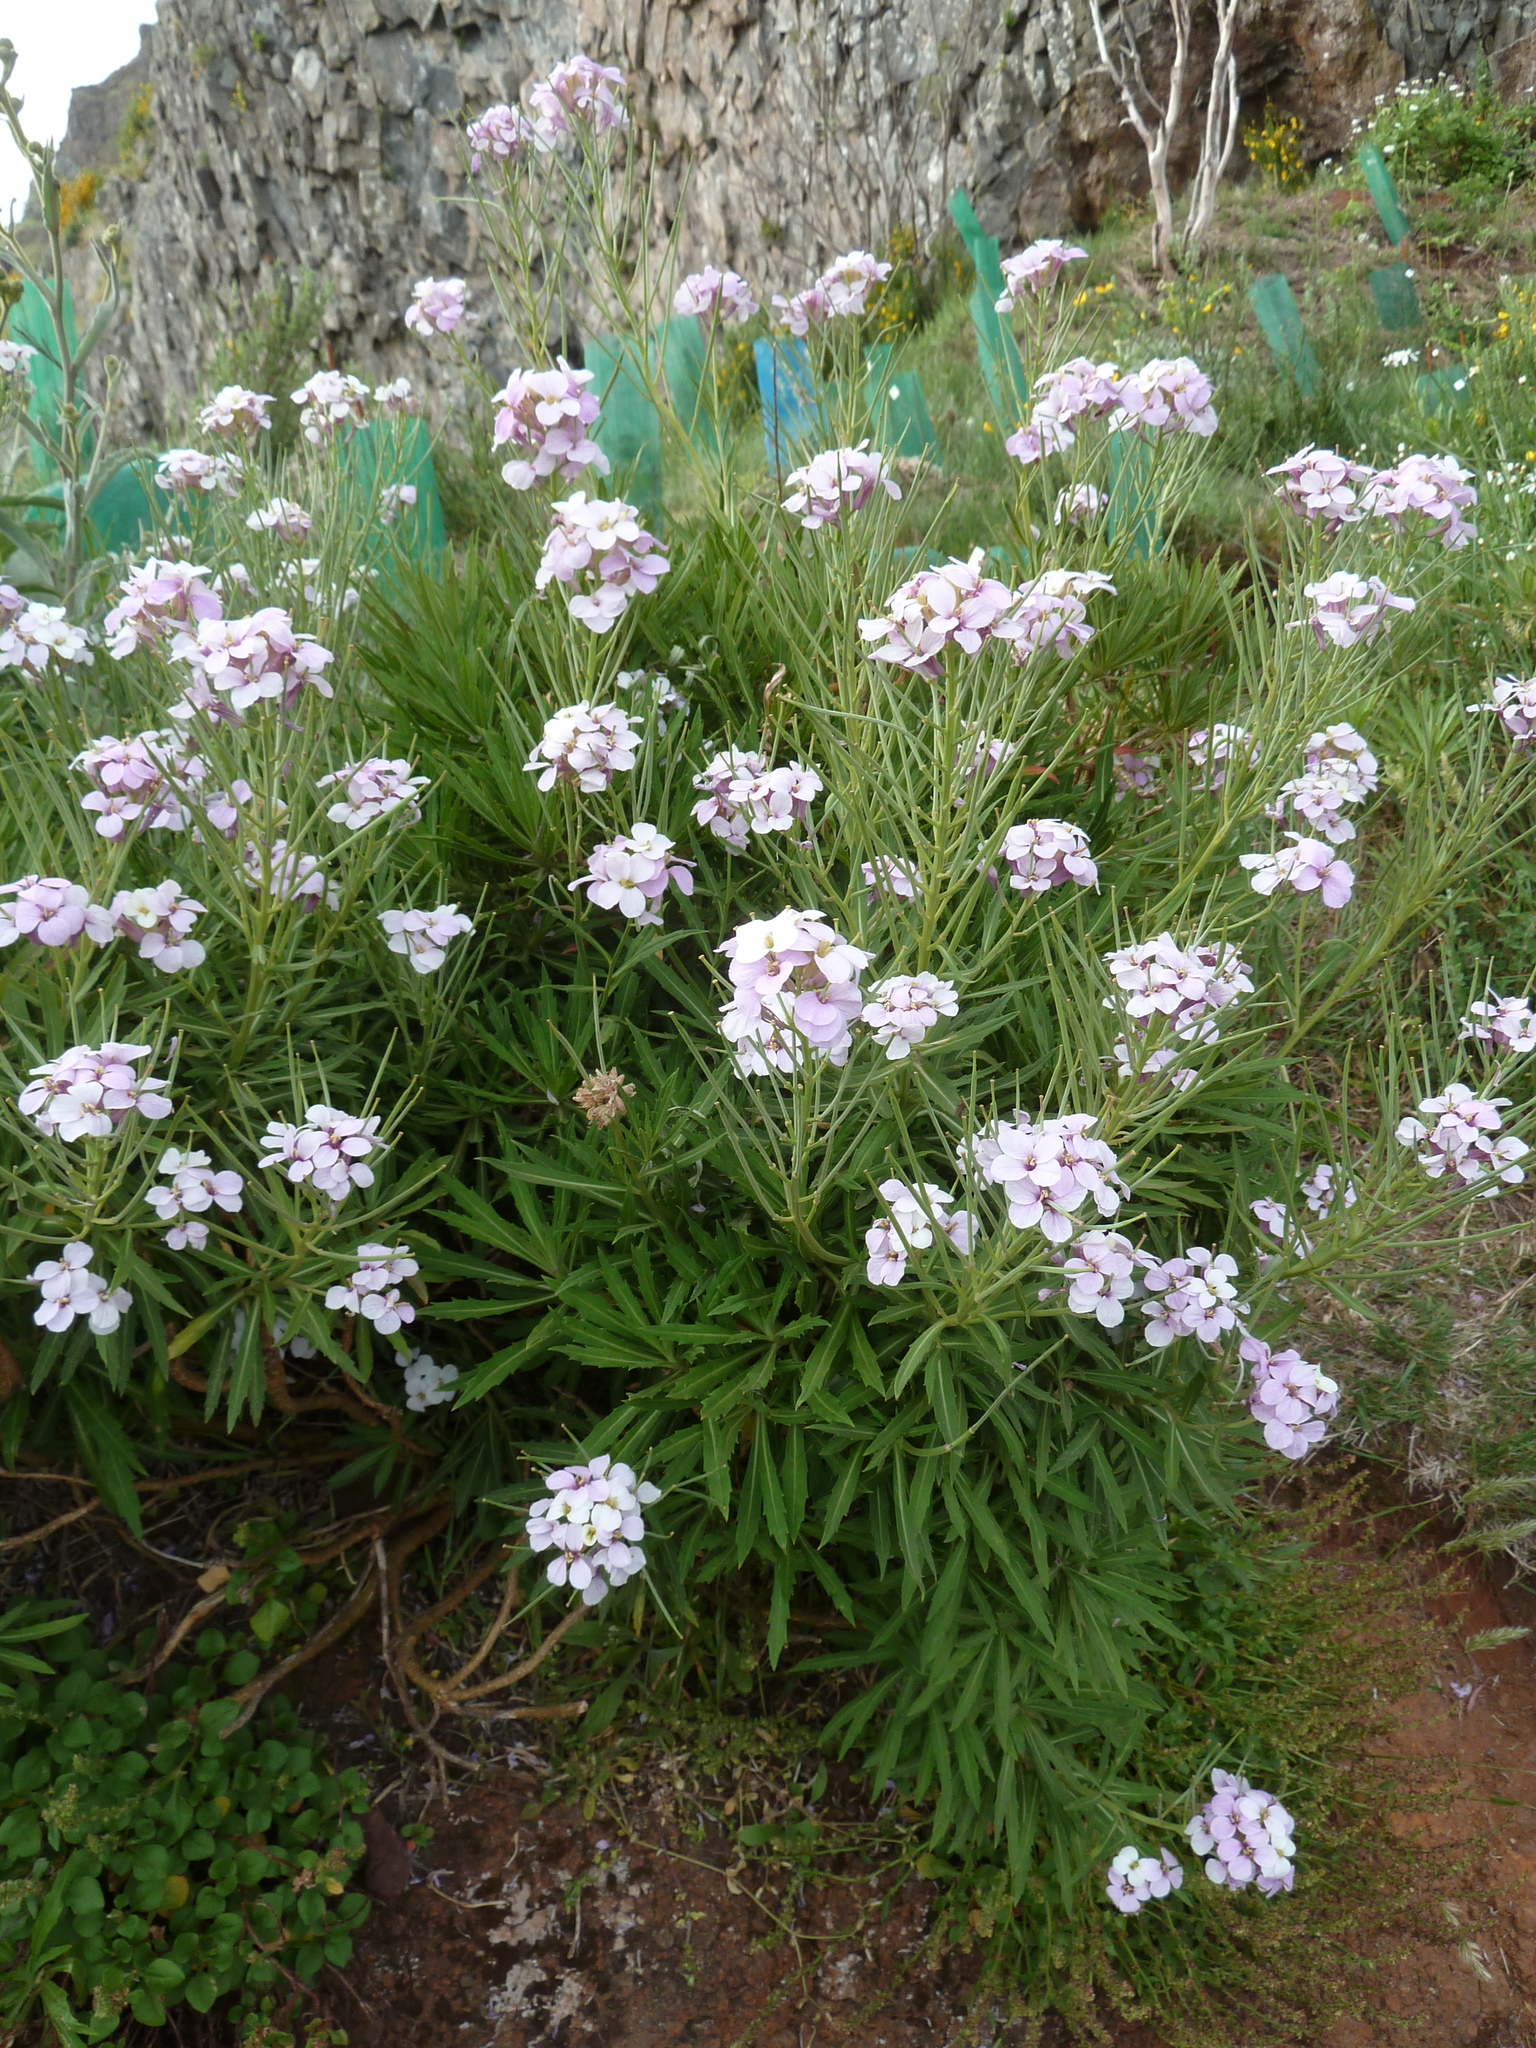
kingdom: Plantae
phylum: Tracheophyta
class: Magnoliopsida
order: Brassicales
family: Brassicaceae
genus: Erysimum
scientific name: Erysimum bicolor
